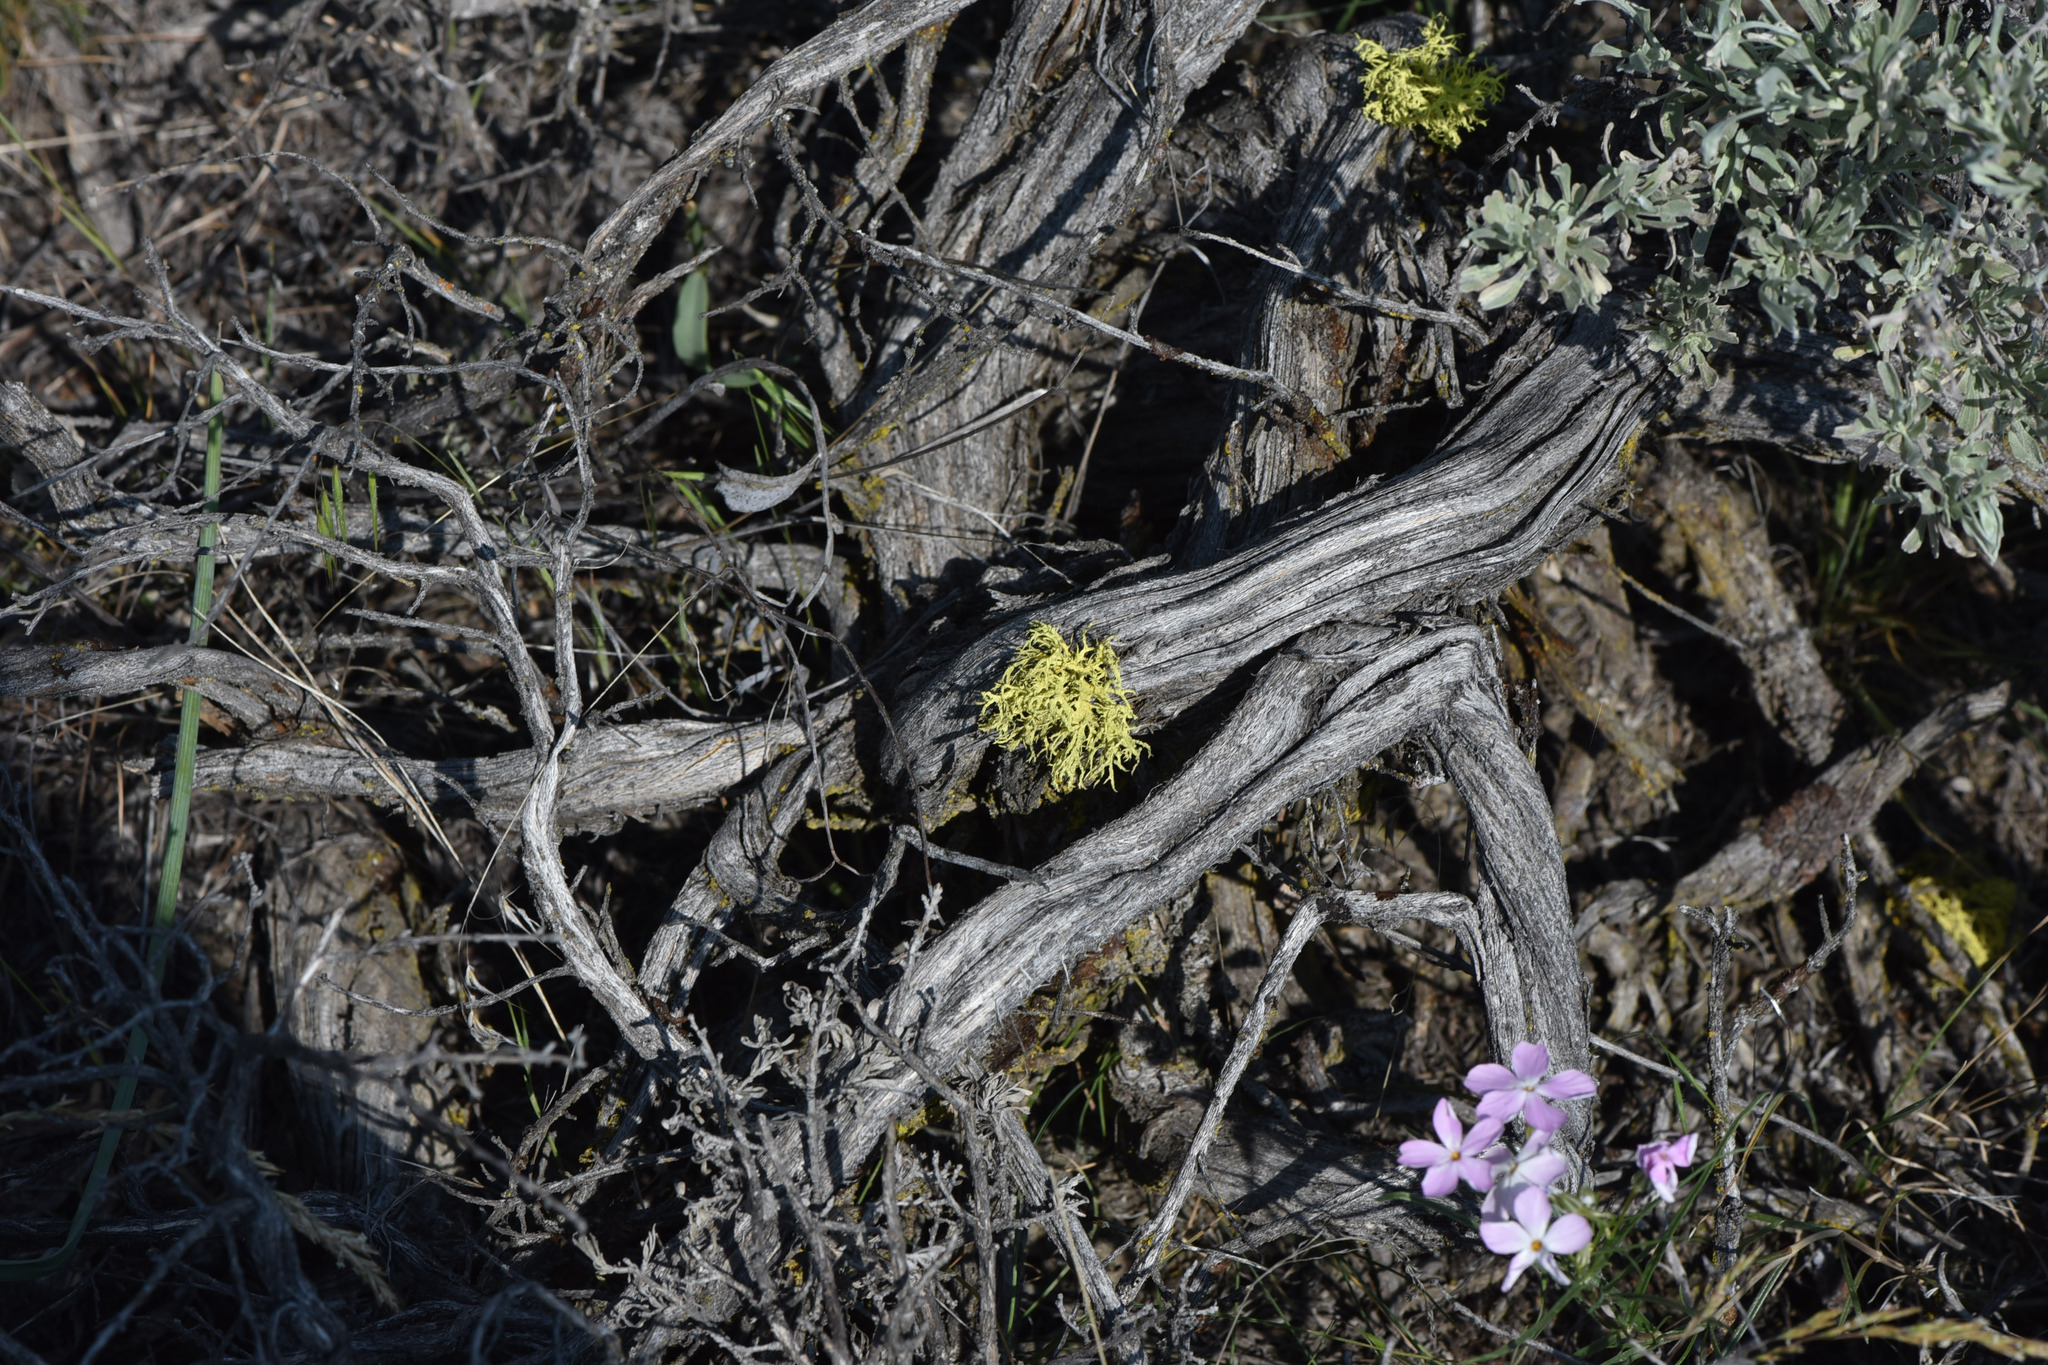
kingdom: Plantae
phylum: Tracheophyta
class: Magnoliopsida
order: Ericales
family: Polemoniaceae
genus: Phlox
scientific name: Phlox longifolia
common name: Longleaf phlox
